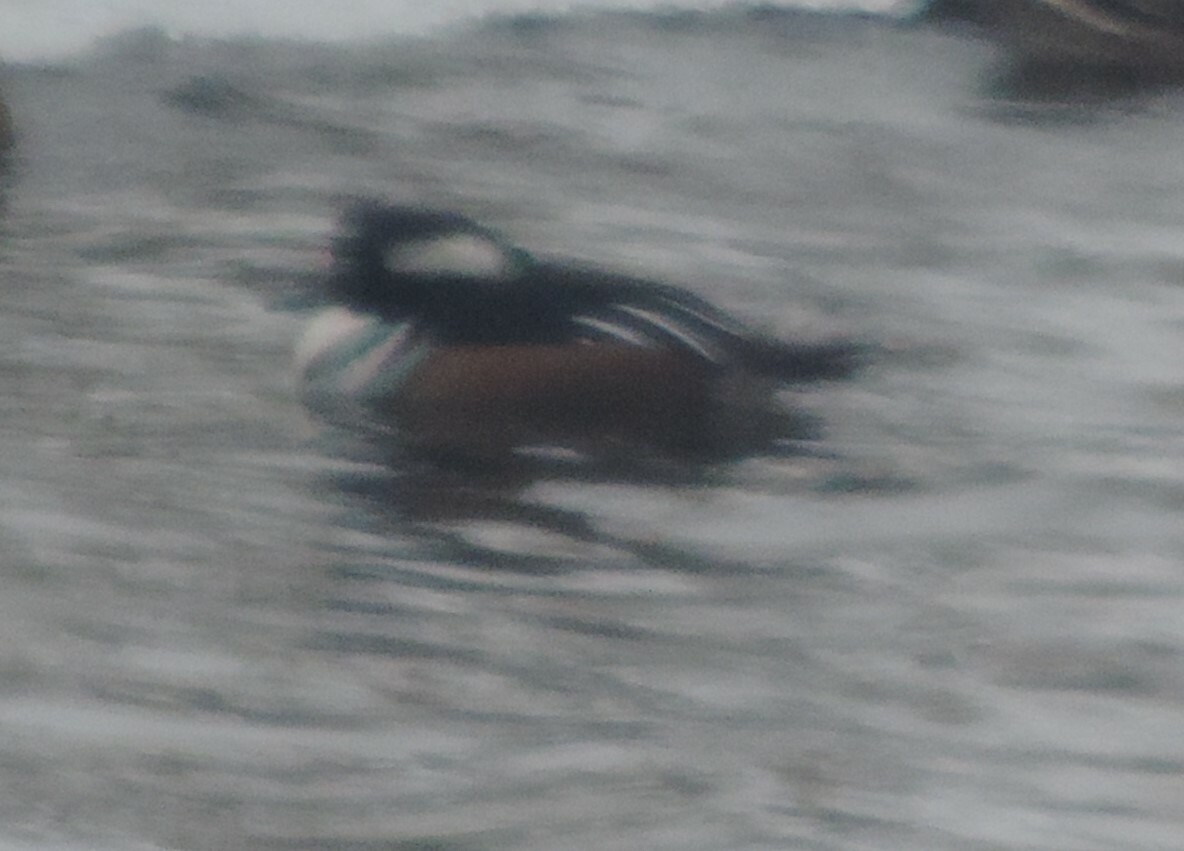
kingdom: Animalia
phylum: Chordata
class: Aves
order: Anseriformes
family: Anatidae
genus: Lophodytes
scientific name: Lophodytes cucullatus
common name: Hooded merganser
